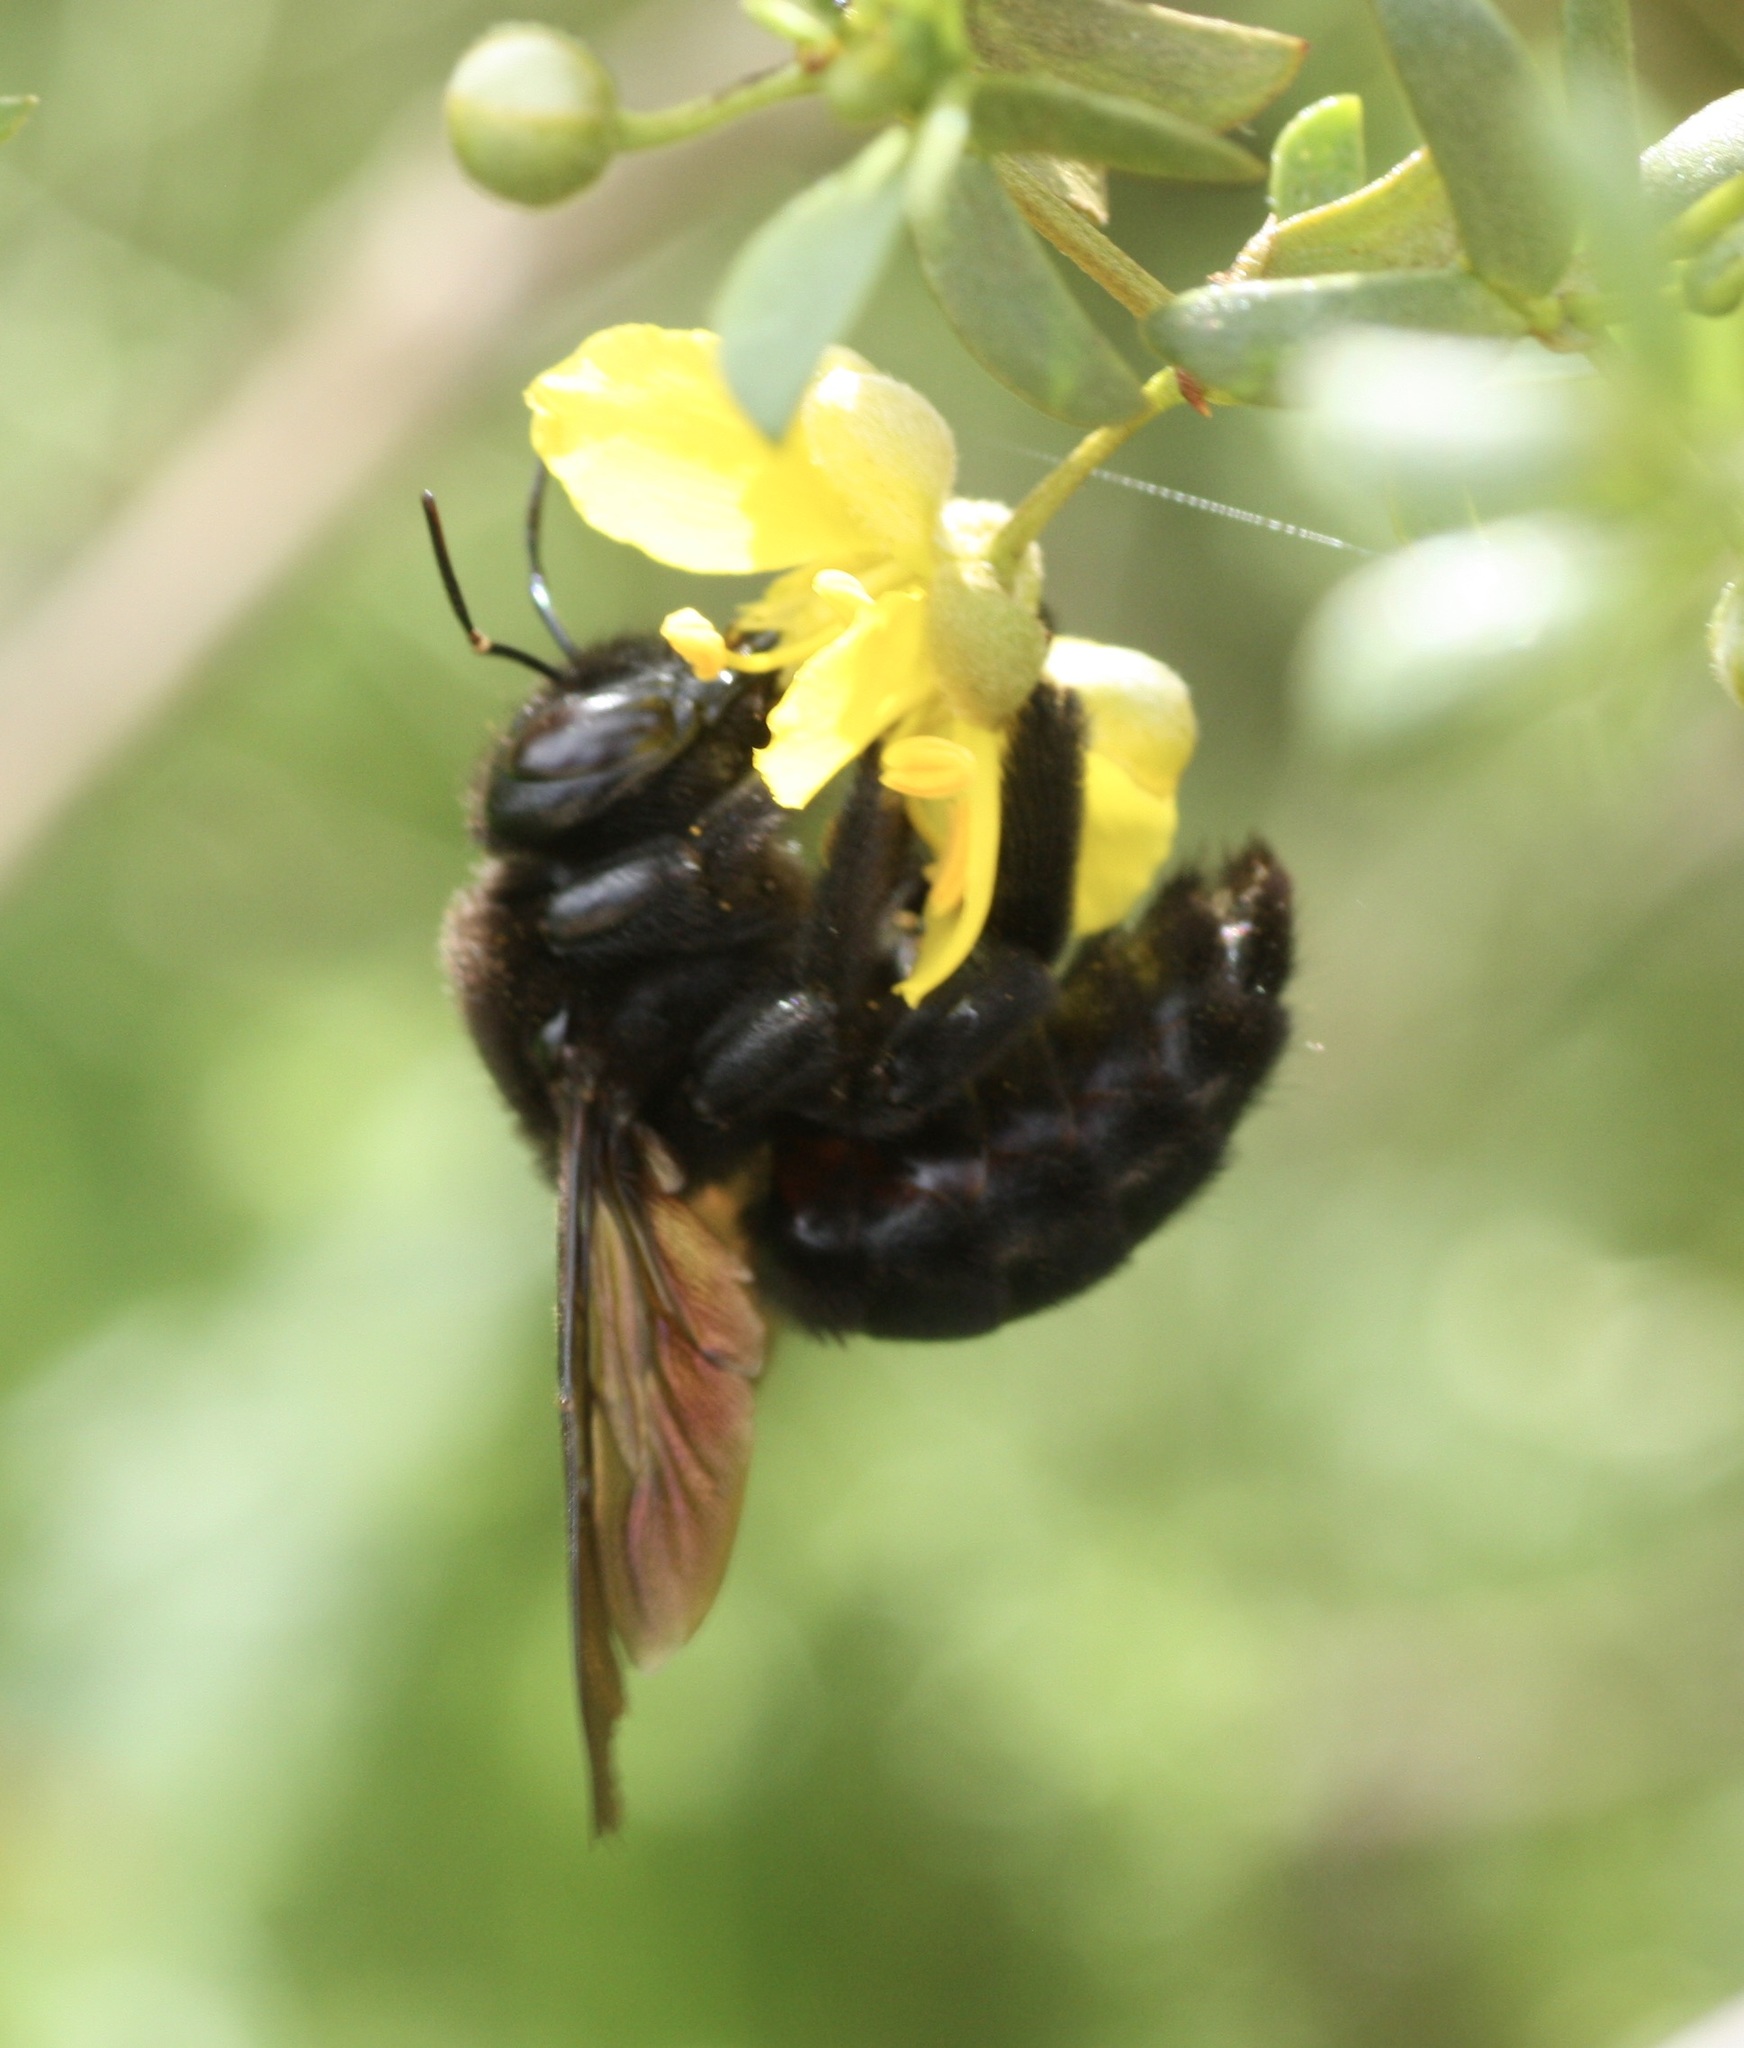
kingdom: Animalia
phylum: Arthropoda
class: Insecta
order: Hymenoptera
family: Apidae
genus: Xylocopa
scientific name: Xylocopa sonorina
